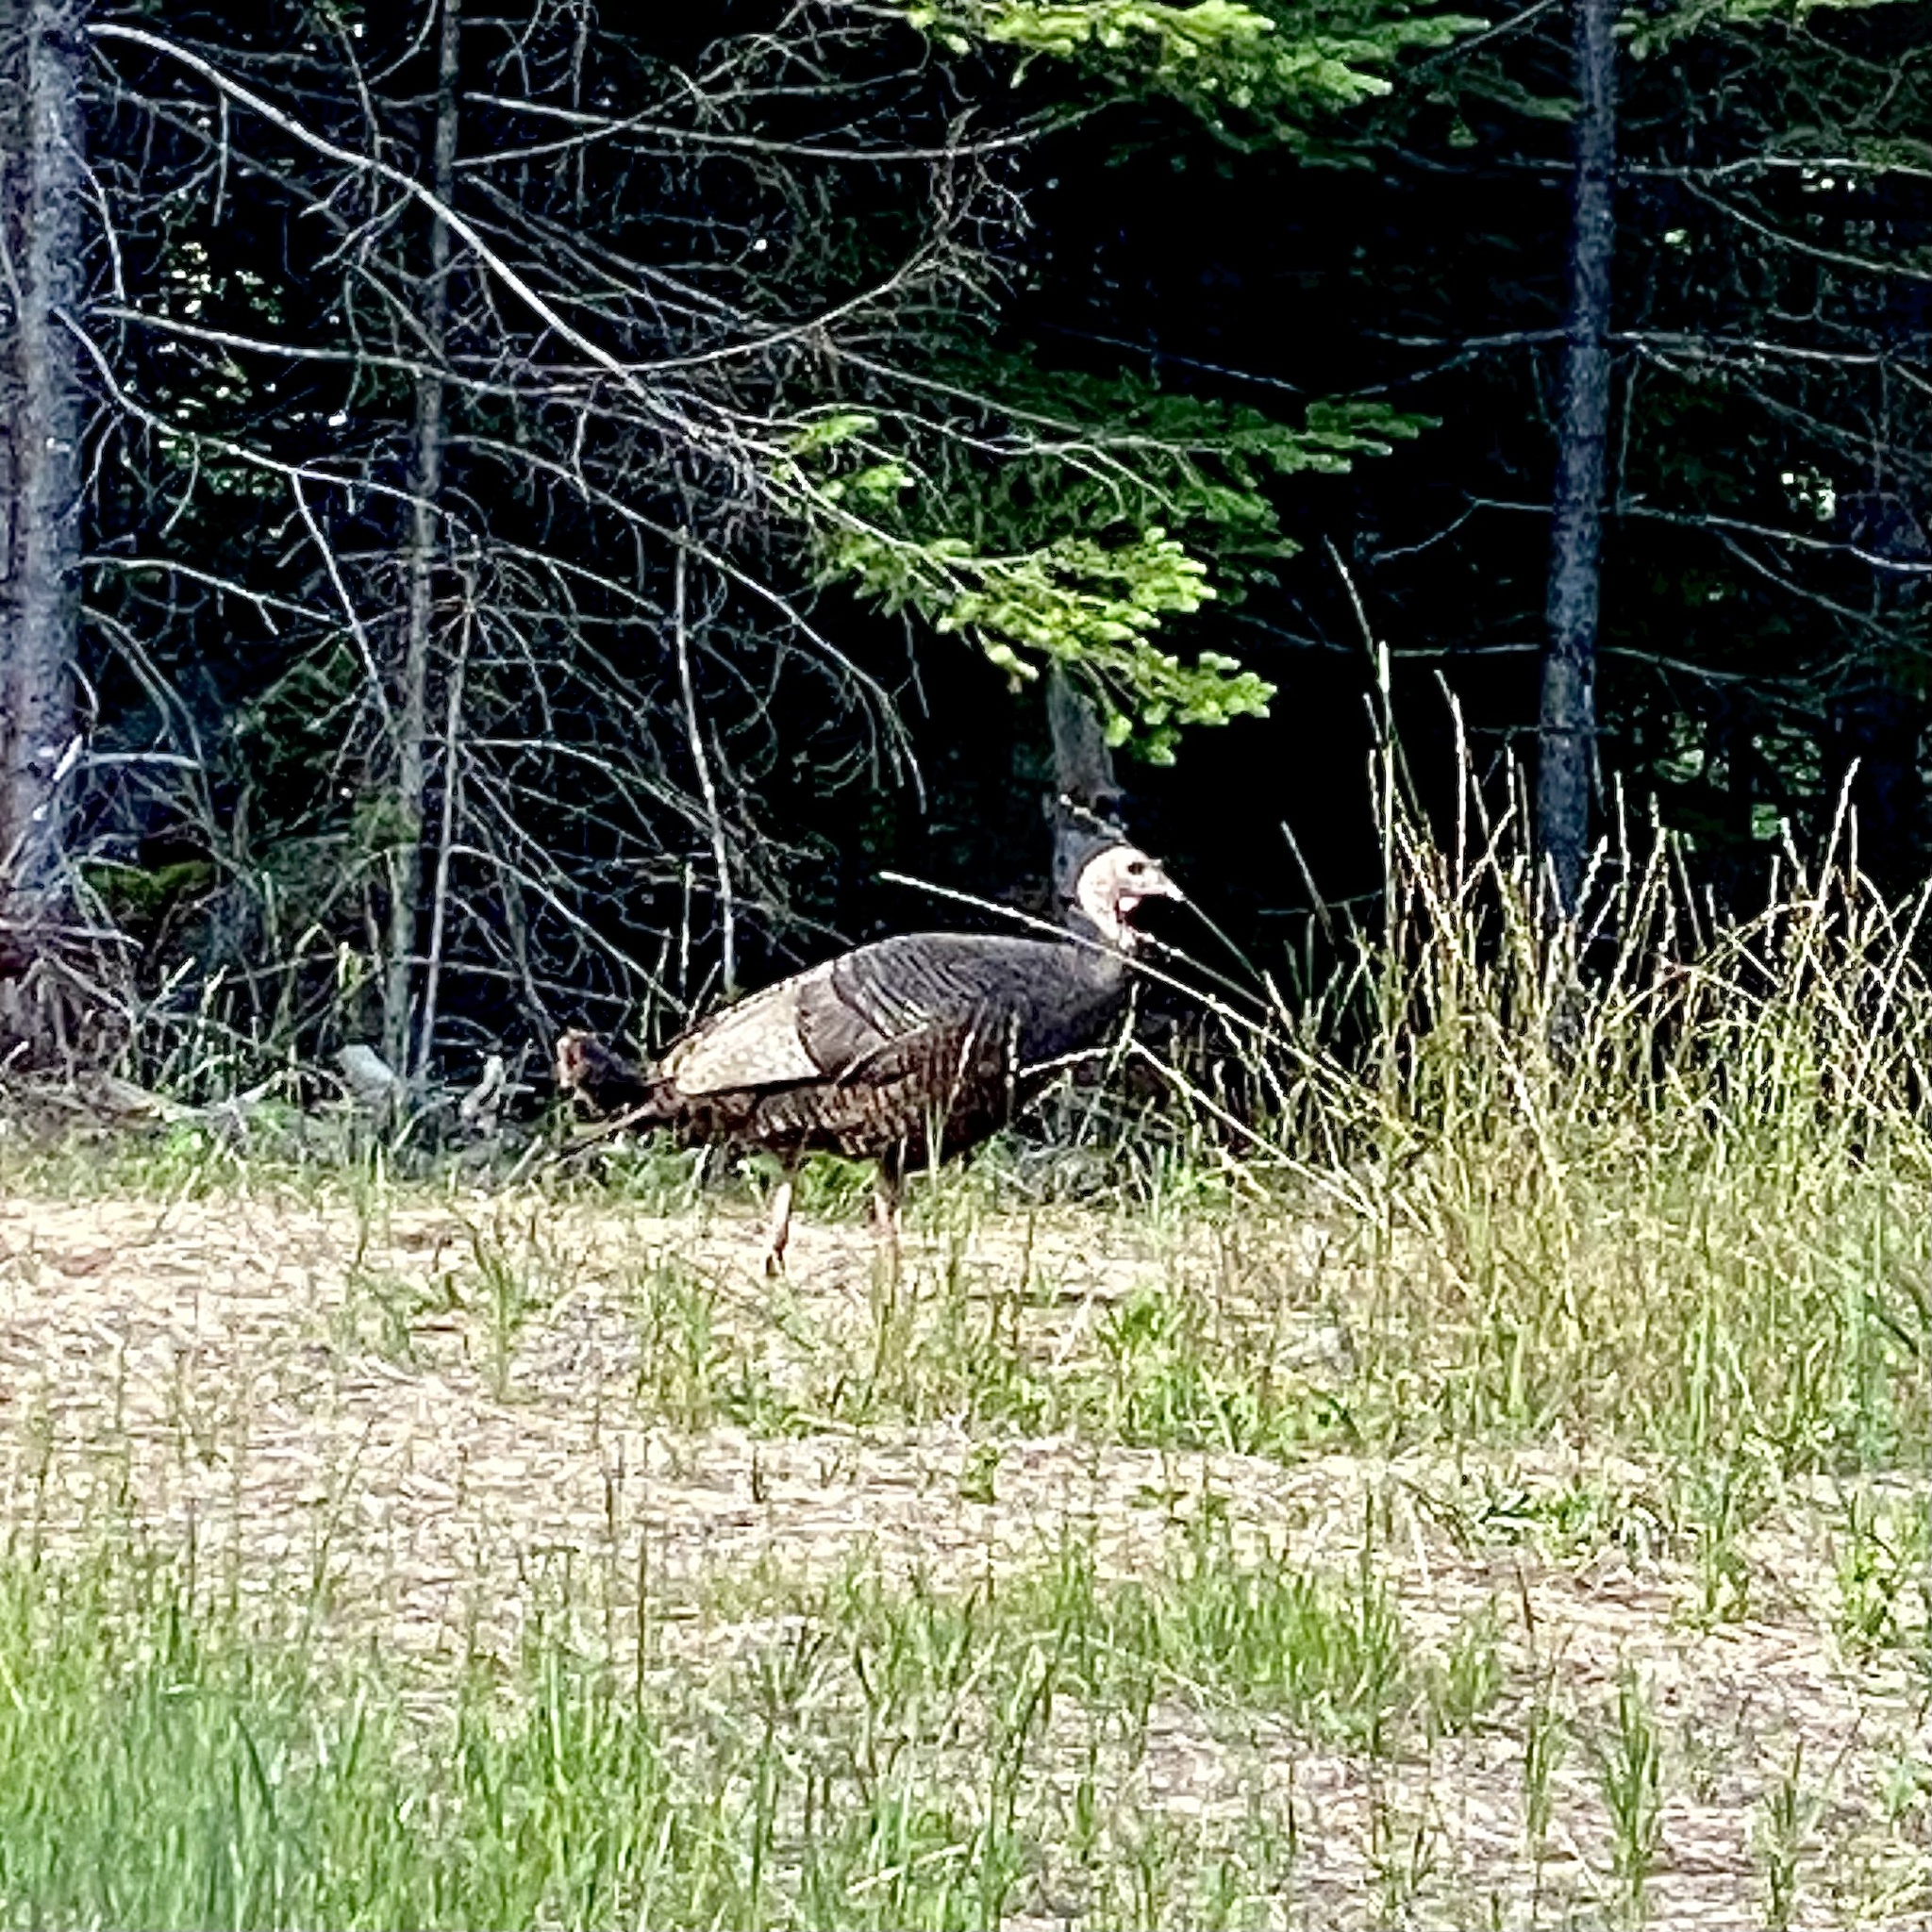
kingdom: Animalia
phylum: Chordata
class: Aves
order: Galliformes
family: Phasianidae
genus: Meleagris
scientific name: Meleagris gallopavo
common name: Wild turkey
